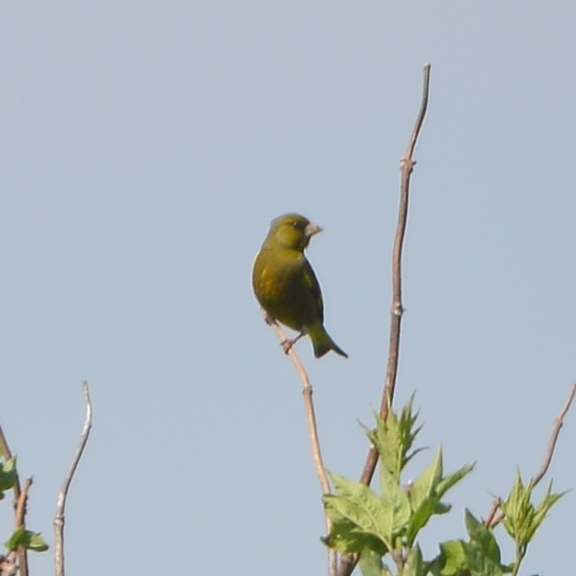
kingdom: Plantae
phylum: Tracheophyta
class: Liliopsida
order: Poales
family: Poaceae
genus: Chloris
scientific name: Chloris sinica
